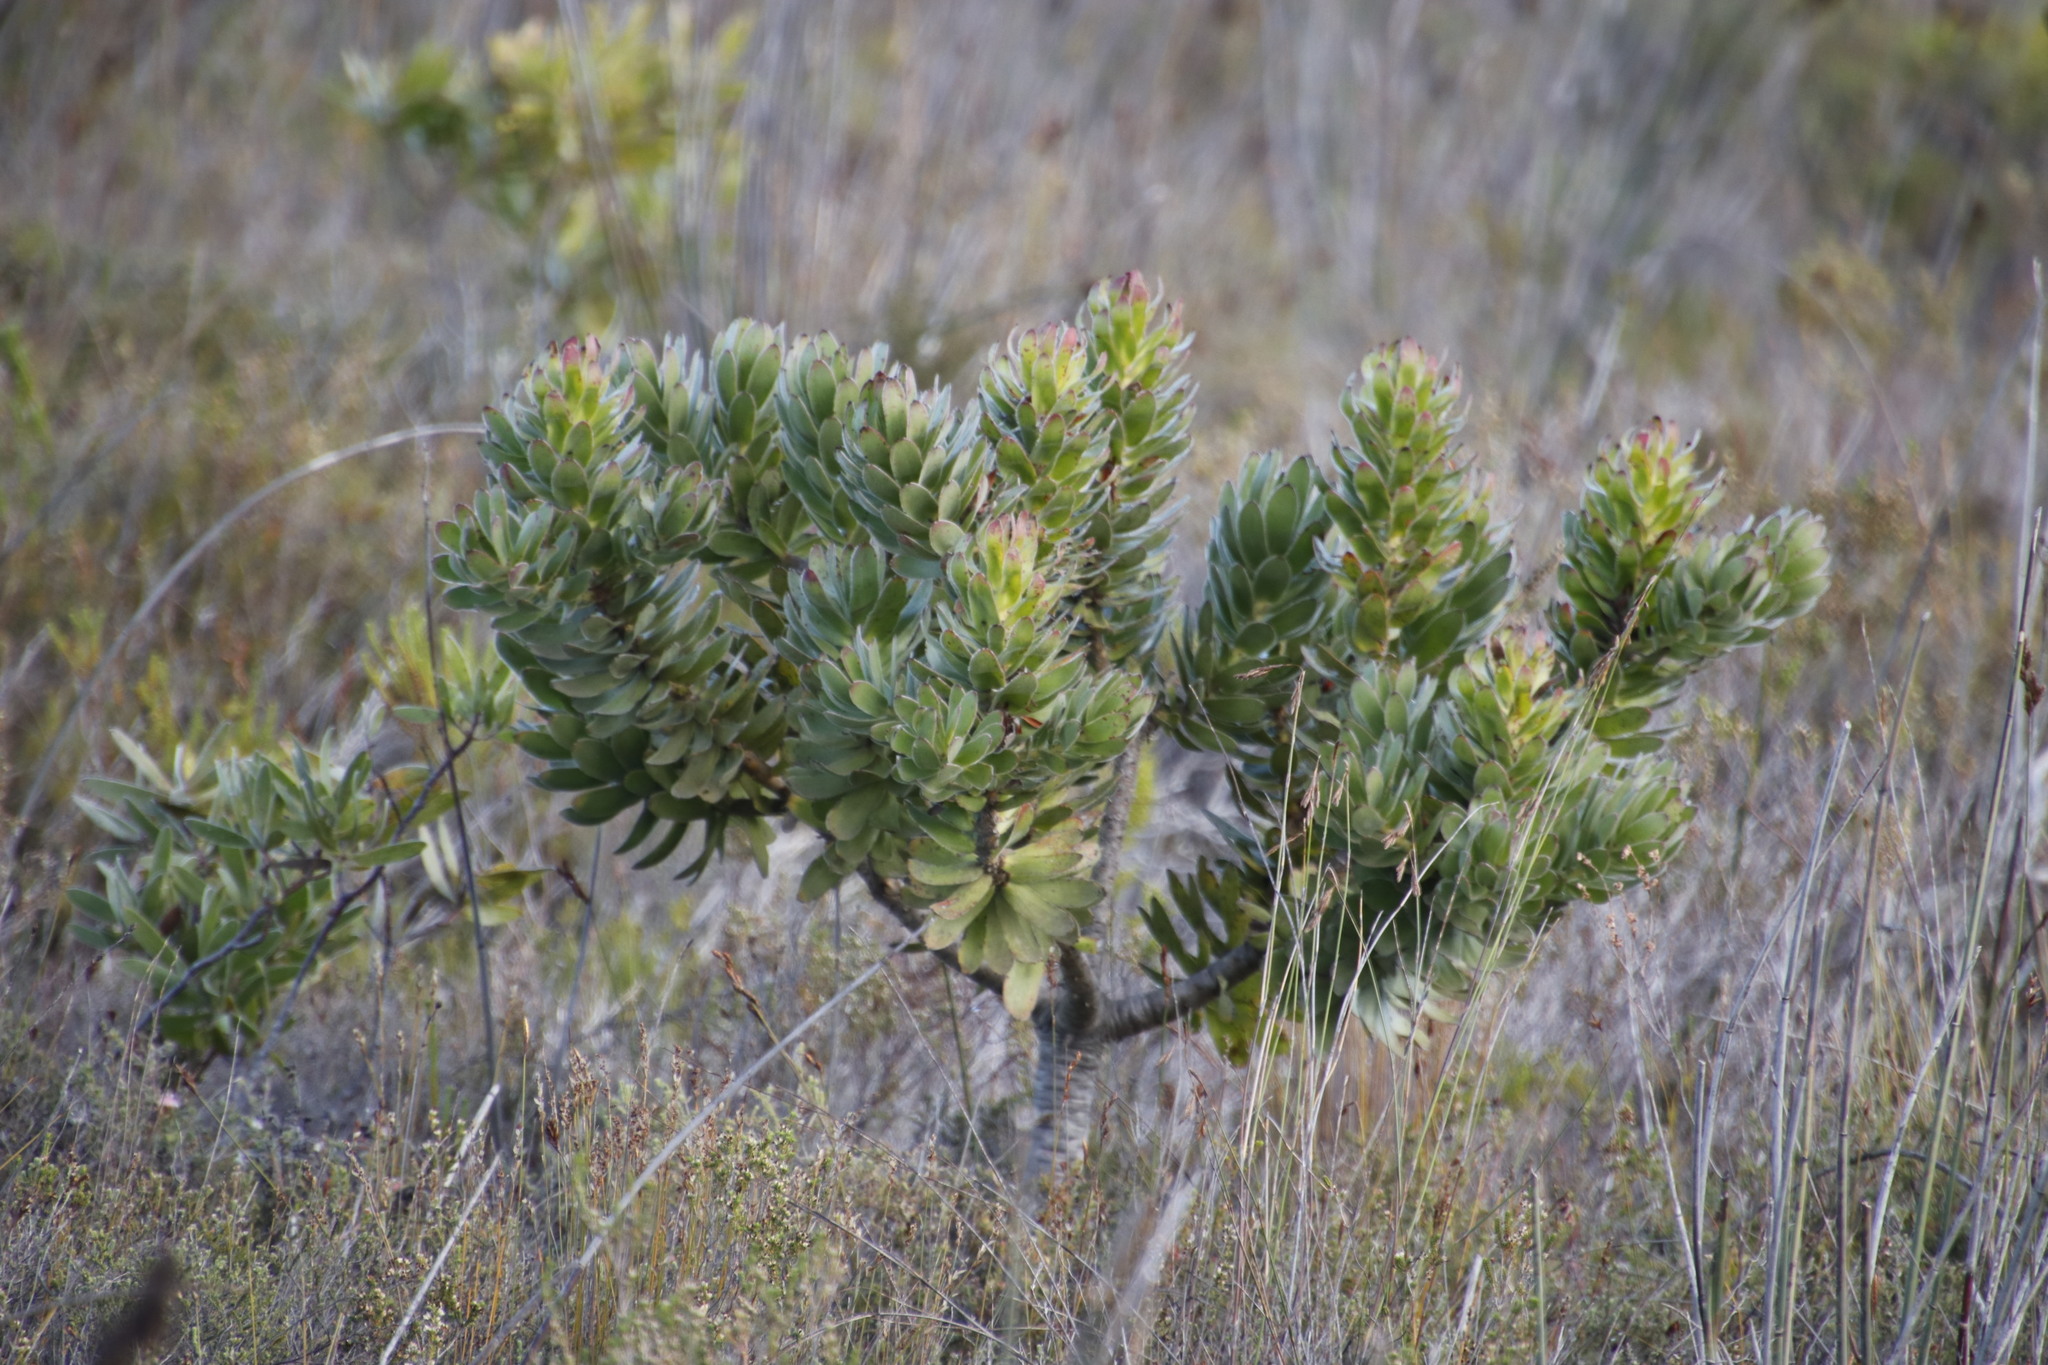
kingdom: Plantae
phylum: Tracheophyta
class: Magnoliopsida
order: Proteales
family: Proteaceae
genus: Mimetes
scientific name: Mimetes fimbriifolius
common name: Fringed bottlebrush
